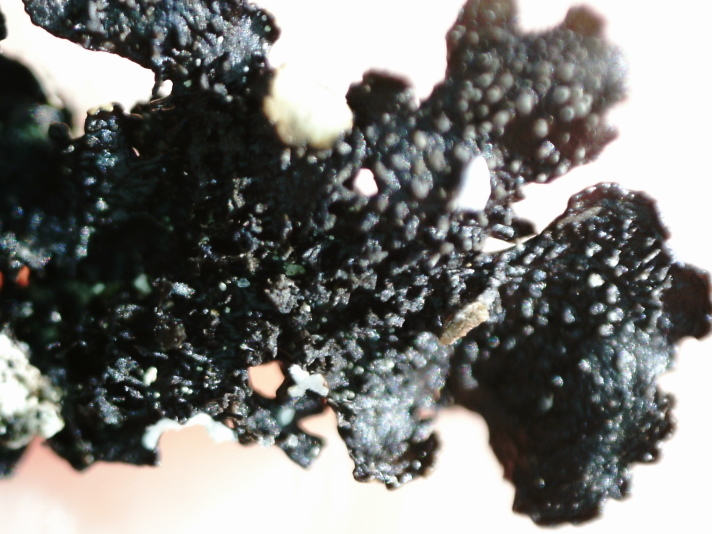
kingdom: Fungi
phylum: Ascomycota
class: Lecanoromycetes
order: Lecanorales
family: Parmeliaceae
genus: Xanthoparmelia
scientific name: Xanthoparmelia conspersa
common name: Peppered rock shield
